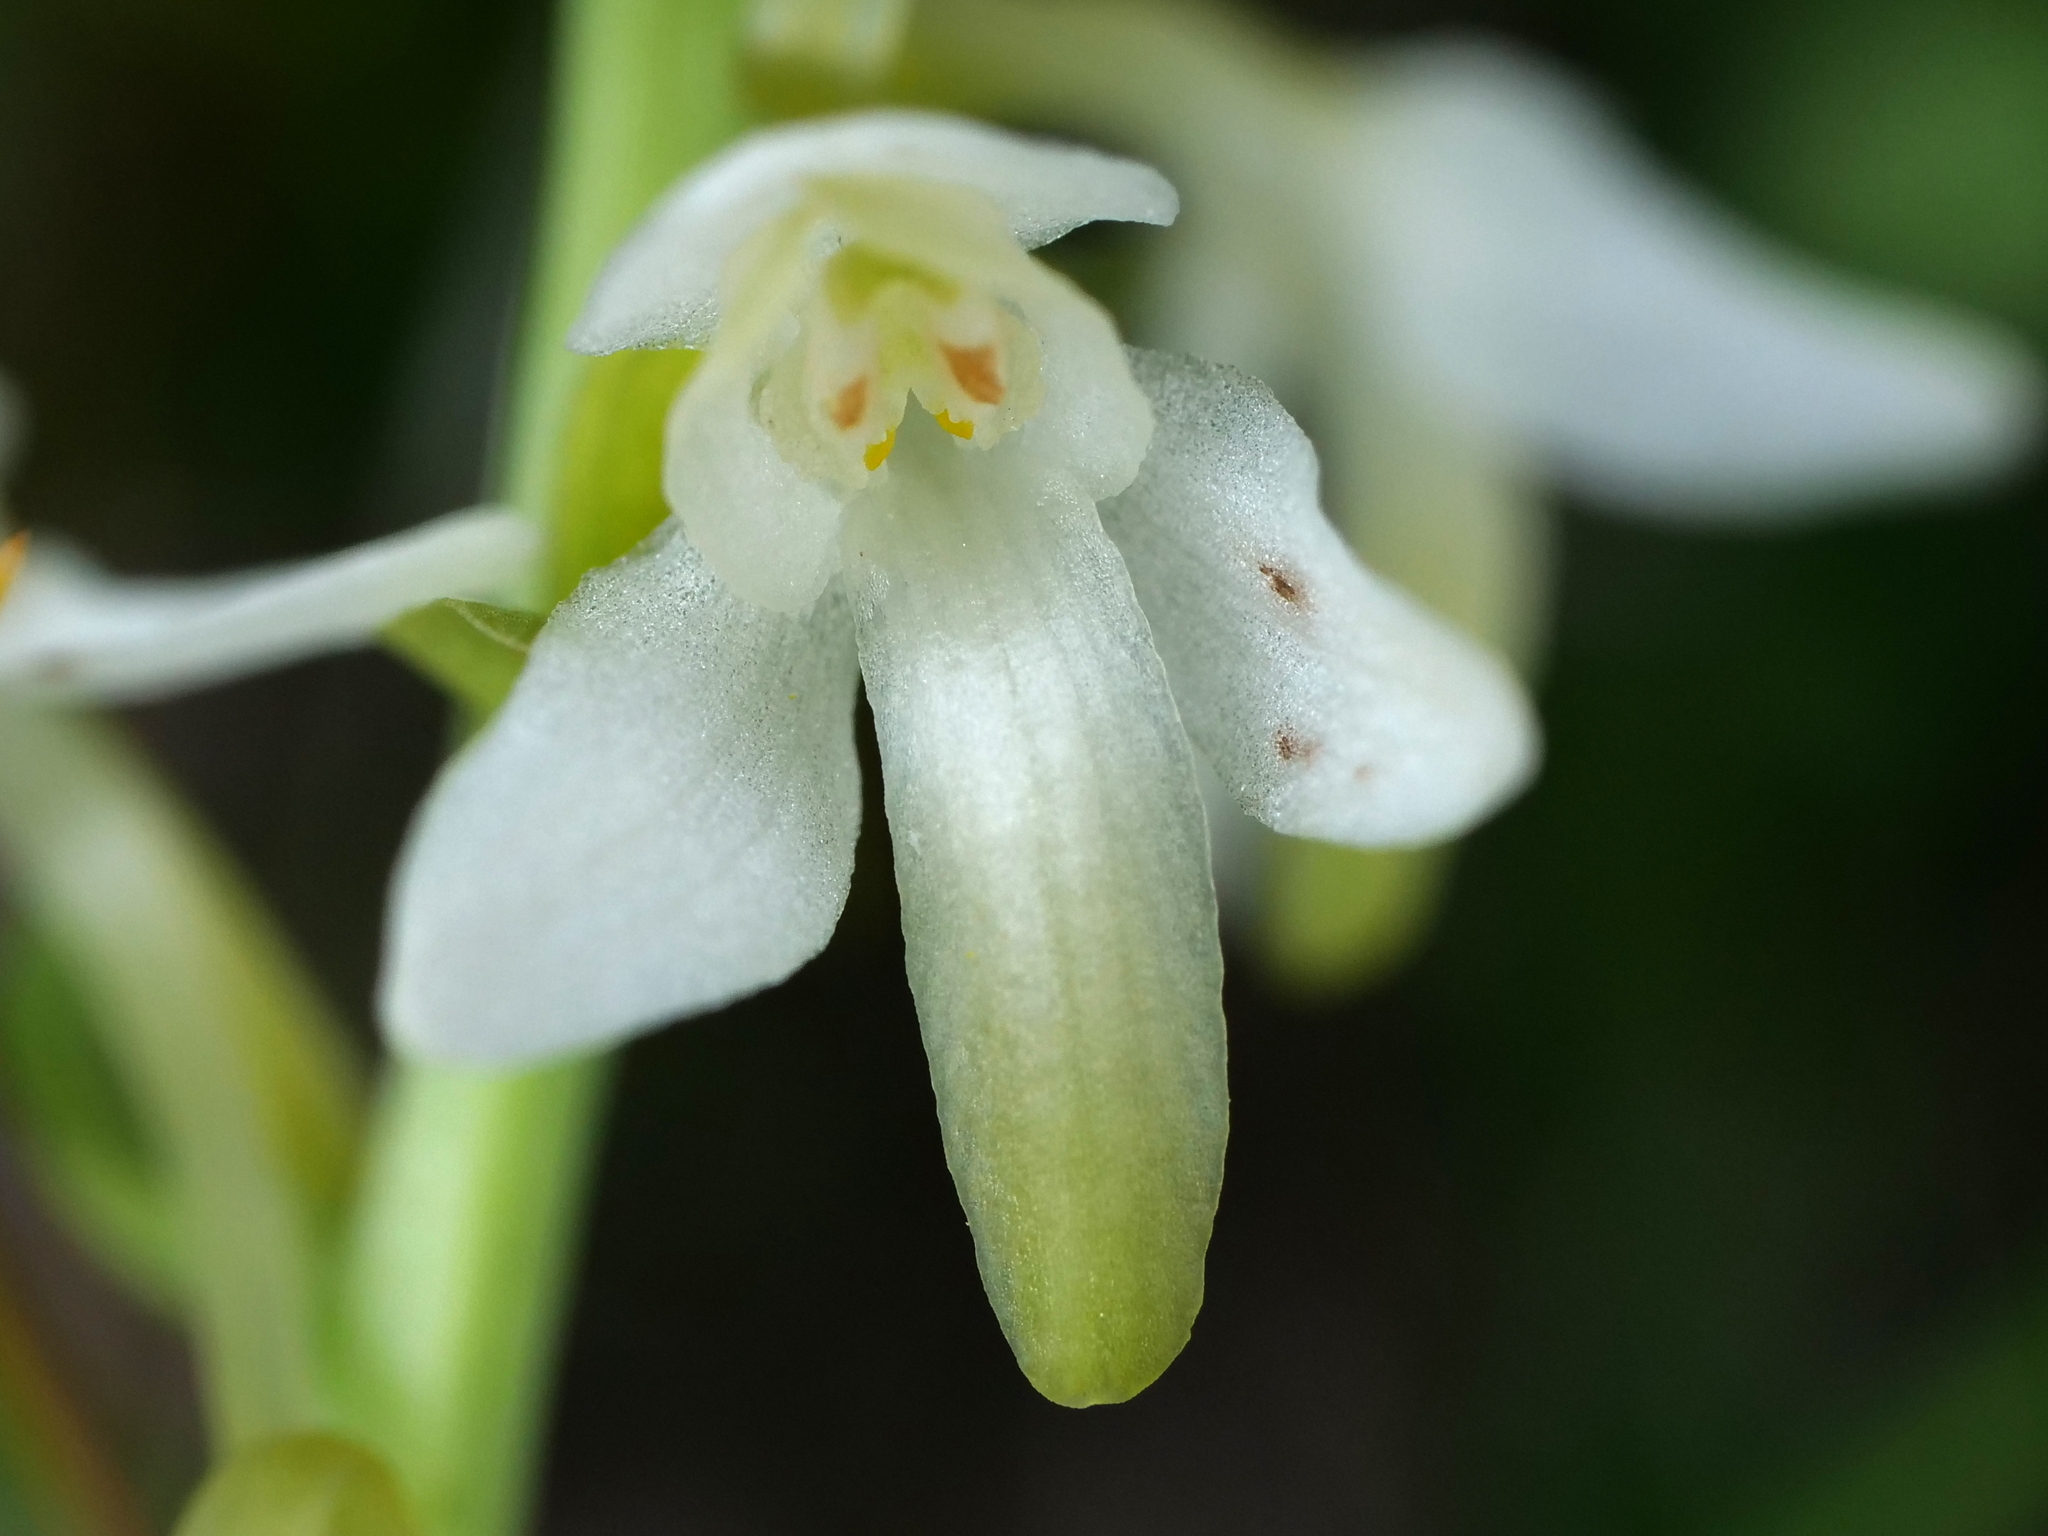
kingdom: Plantae
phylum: Tracheophyta
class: Liliopsida
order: Asparagales
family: Orchidaceae
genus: Platanthera
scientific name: Platanthera bifolia
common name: Lesser butterfly-orchid
